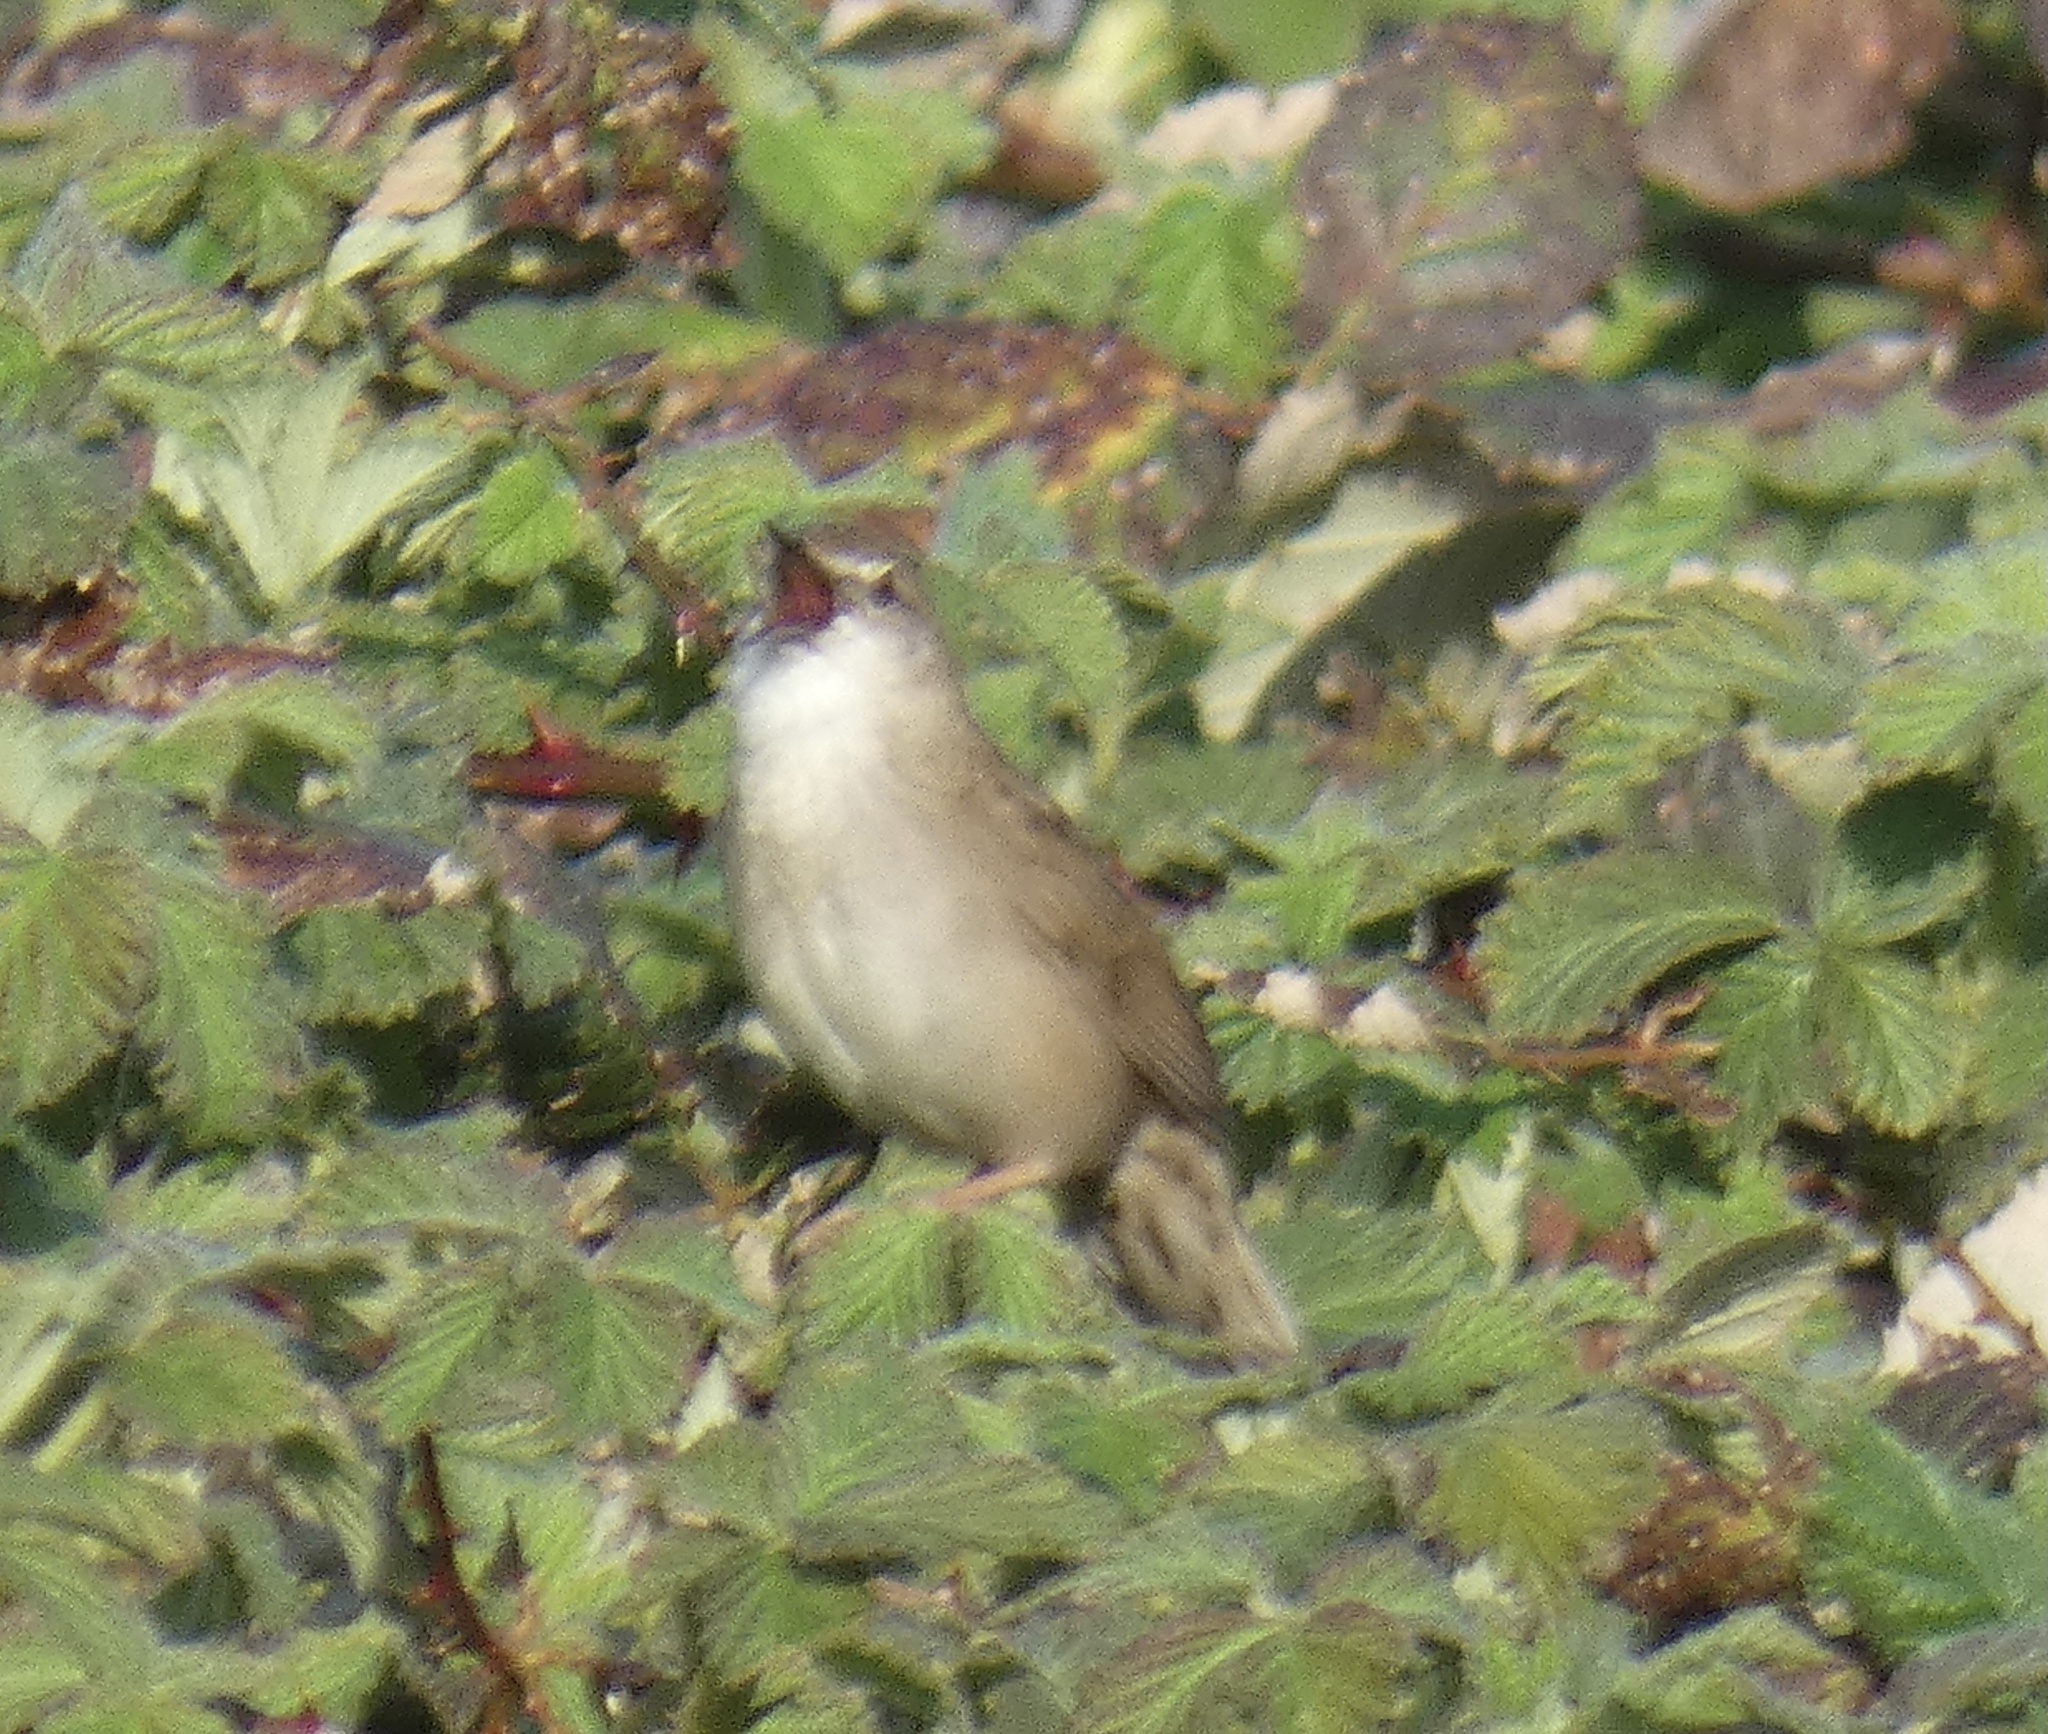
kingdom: Animalia
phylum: Chordata
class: Aves
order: Passeriformes
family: Locustellidae
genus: Locustella
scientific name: Locustella naevia
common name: Common grasshopper warbler
